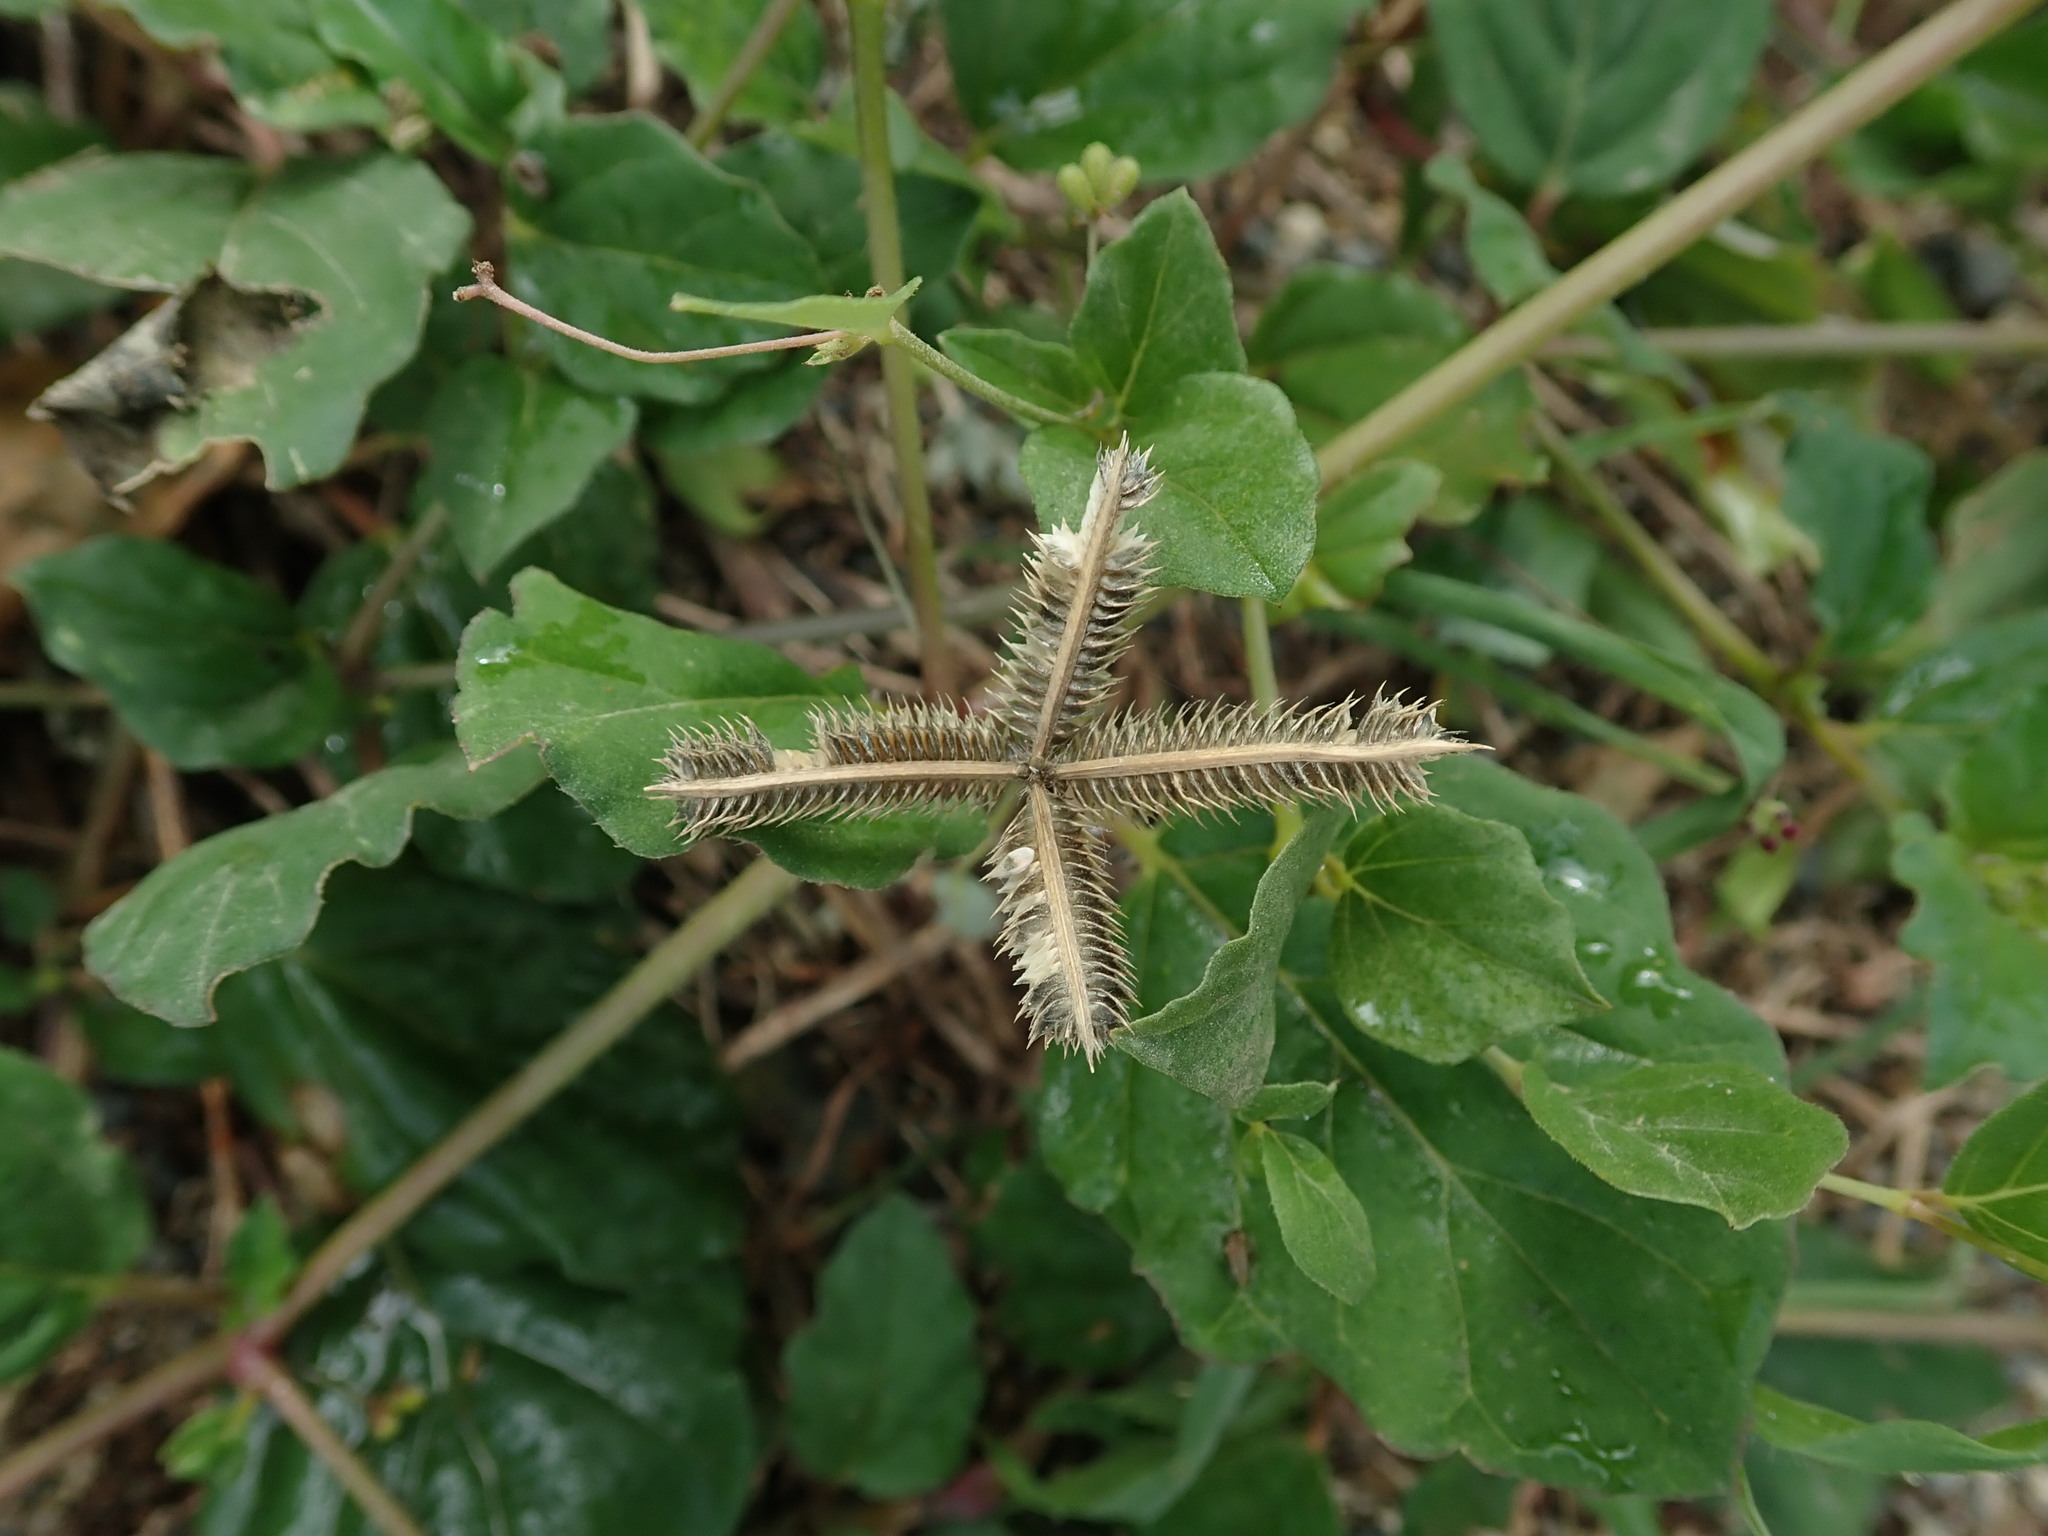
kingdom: Plantae
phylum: Tracheophyta
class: Liliopsida
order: Poales
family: Poaceae
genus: Dactyloctenium
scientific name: Dactyloctenium aegyptium
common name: Egyptian grass
